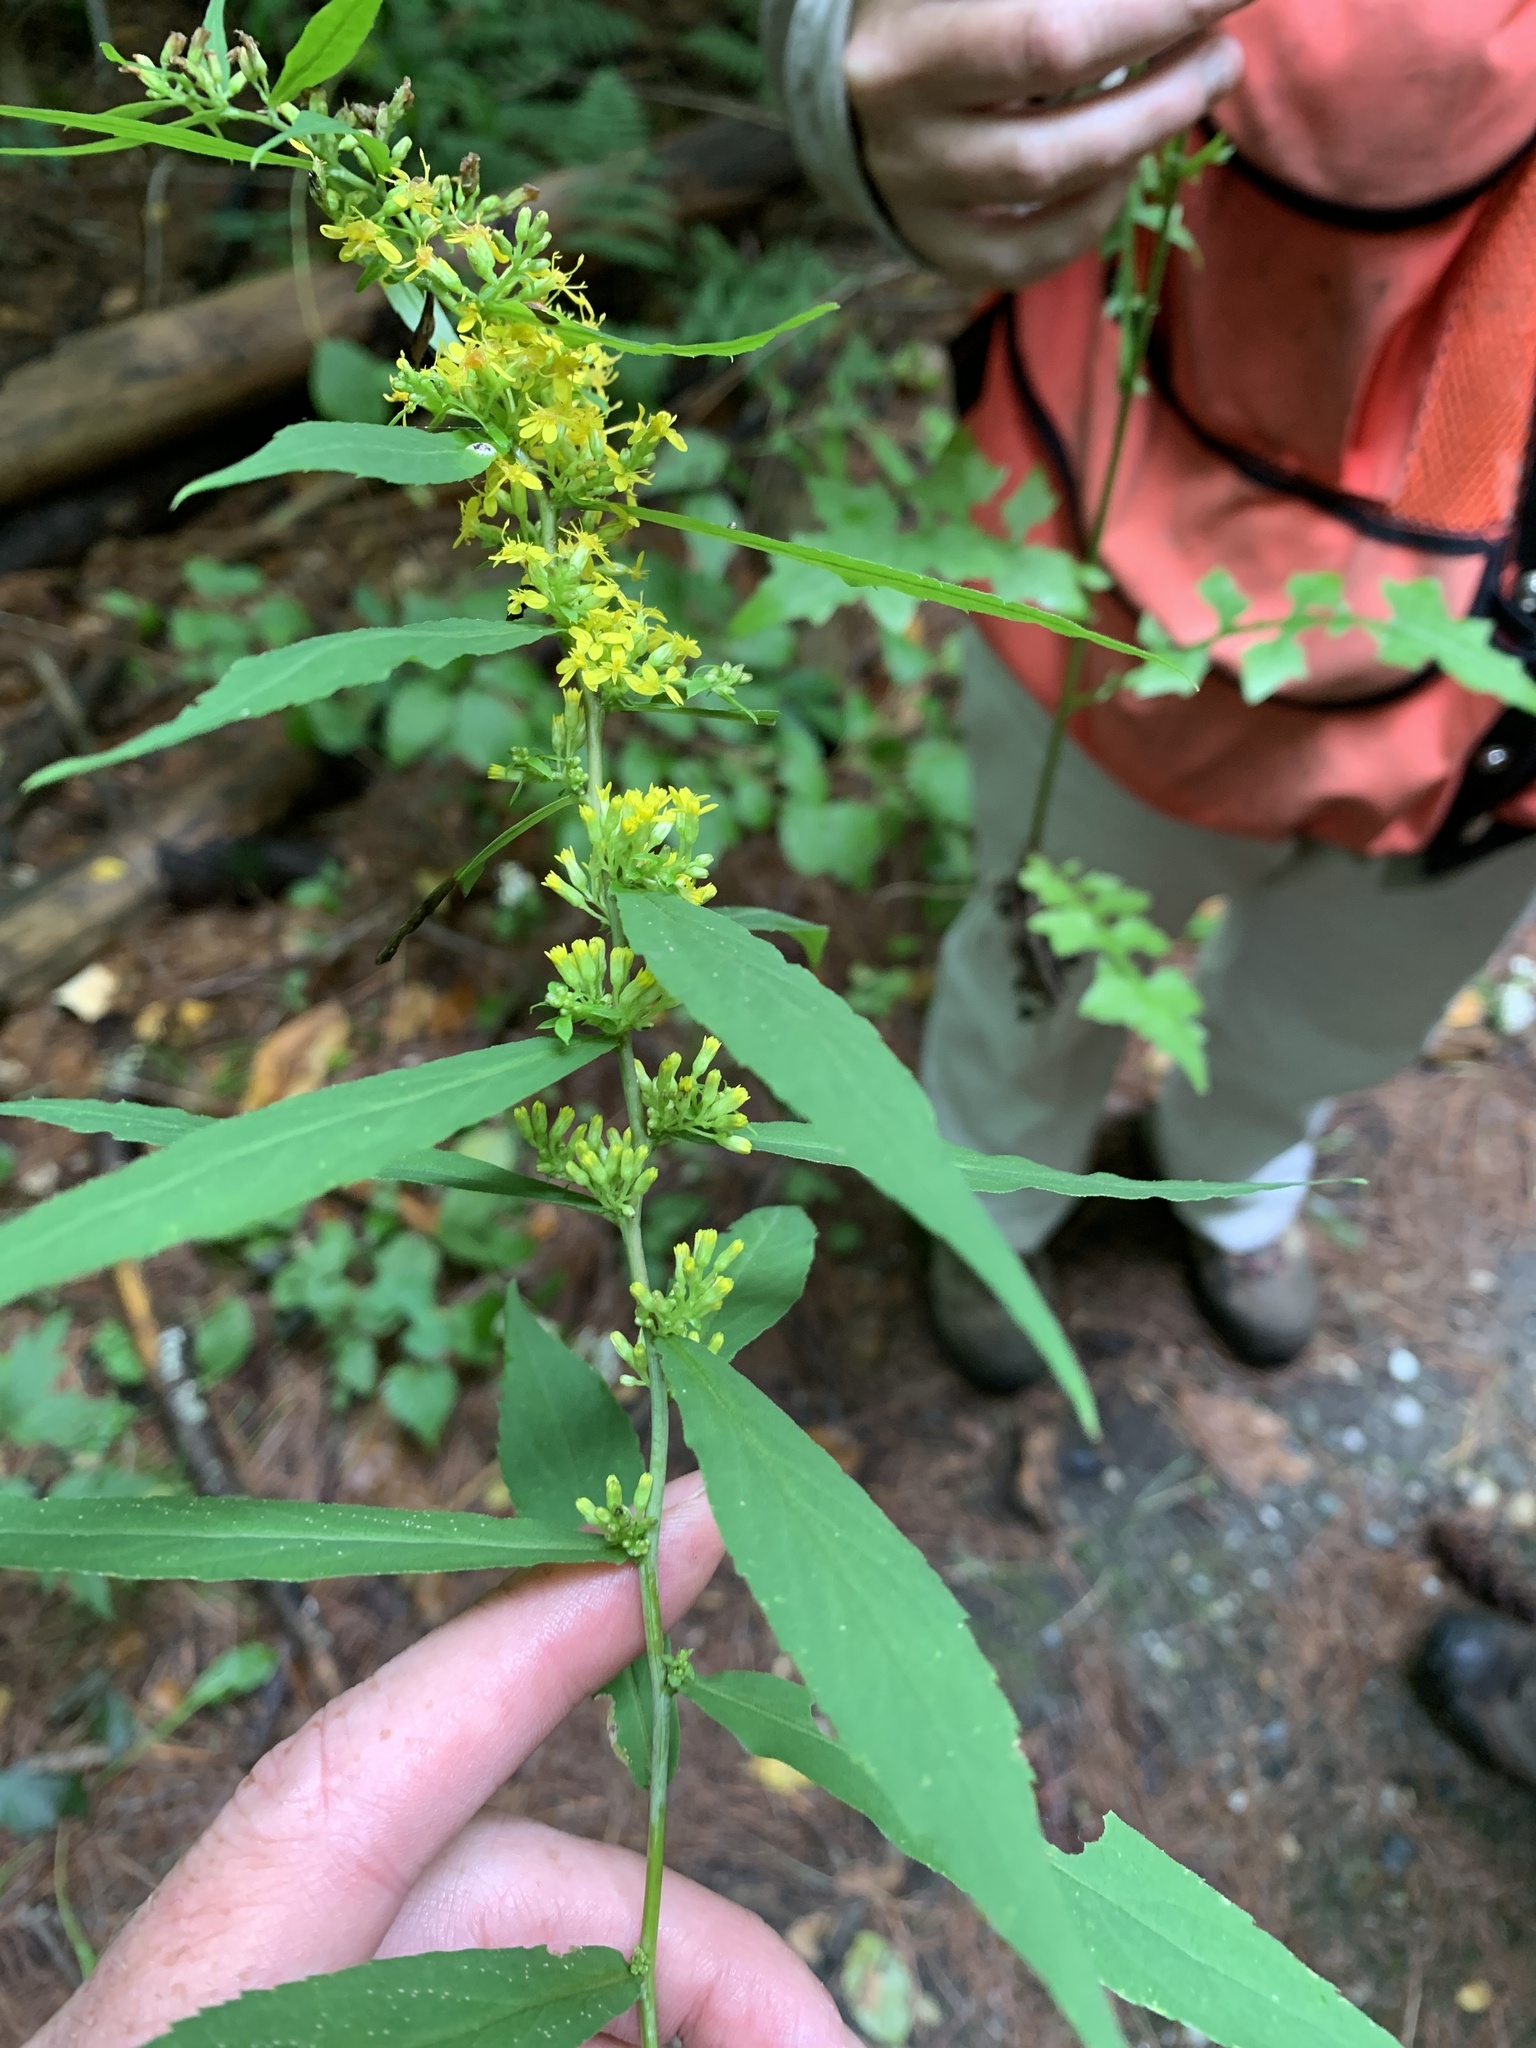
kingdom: Plantae
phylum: Tracheophyta
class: Magnoliopsida
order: Asterales
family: Asteraceae
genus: Solidago
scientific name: Solidago caesia
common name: Woodland goldenrod
